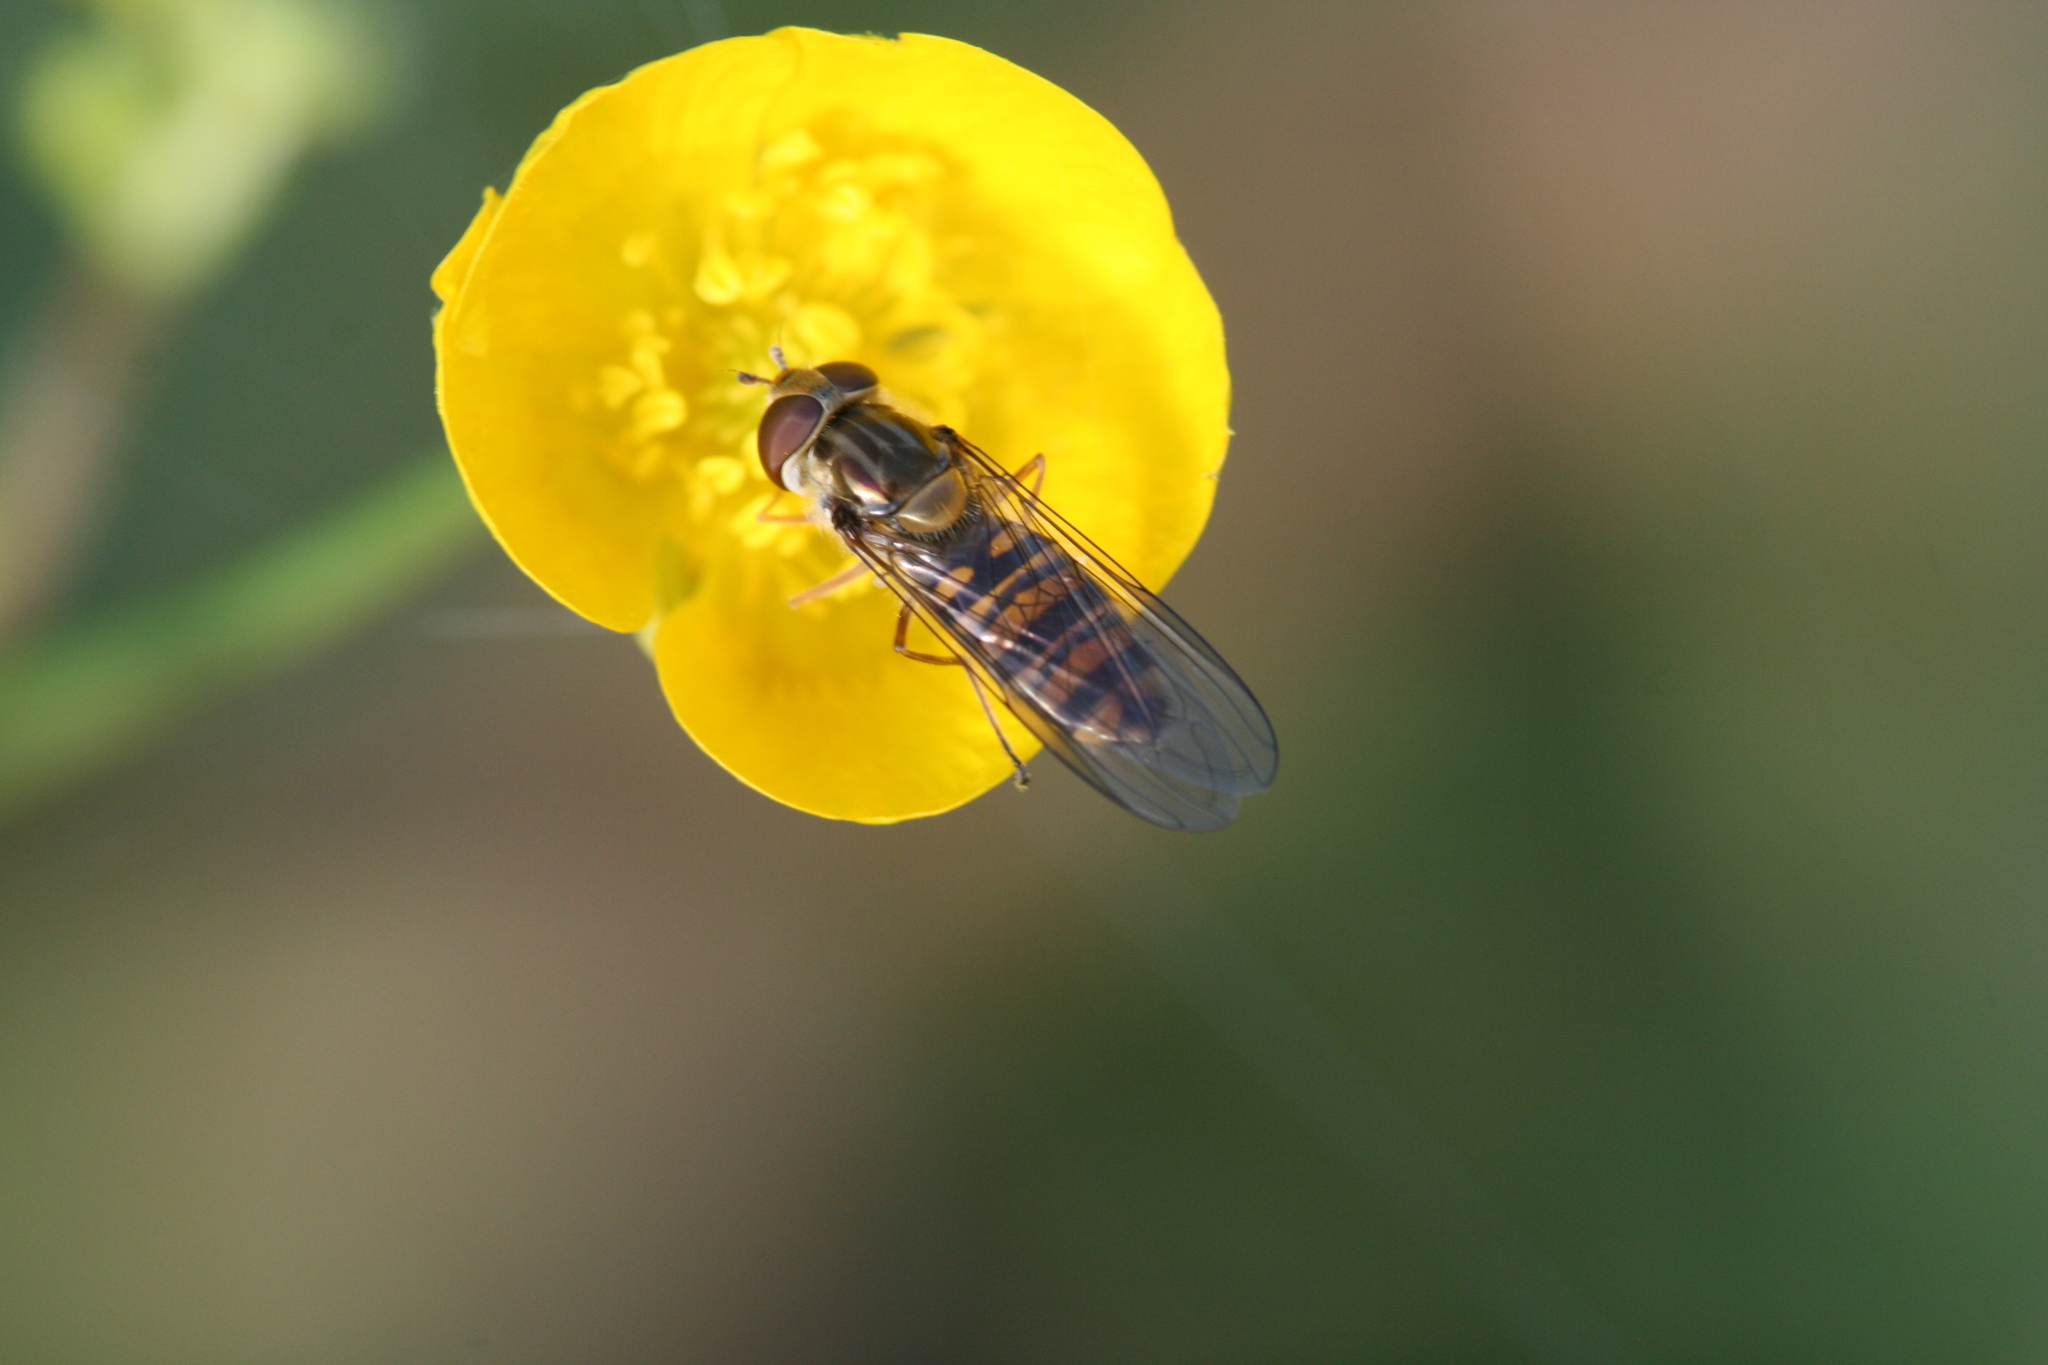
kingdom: Animalia
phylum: Arthropoda
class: Insecta
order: Diptera
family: Syrphidae
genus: Episyrphus
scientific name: Episyrphus balteatus
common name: Marmalade hoverfly
